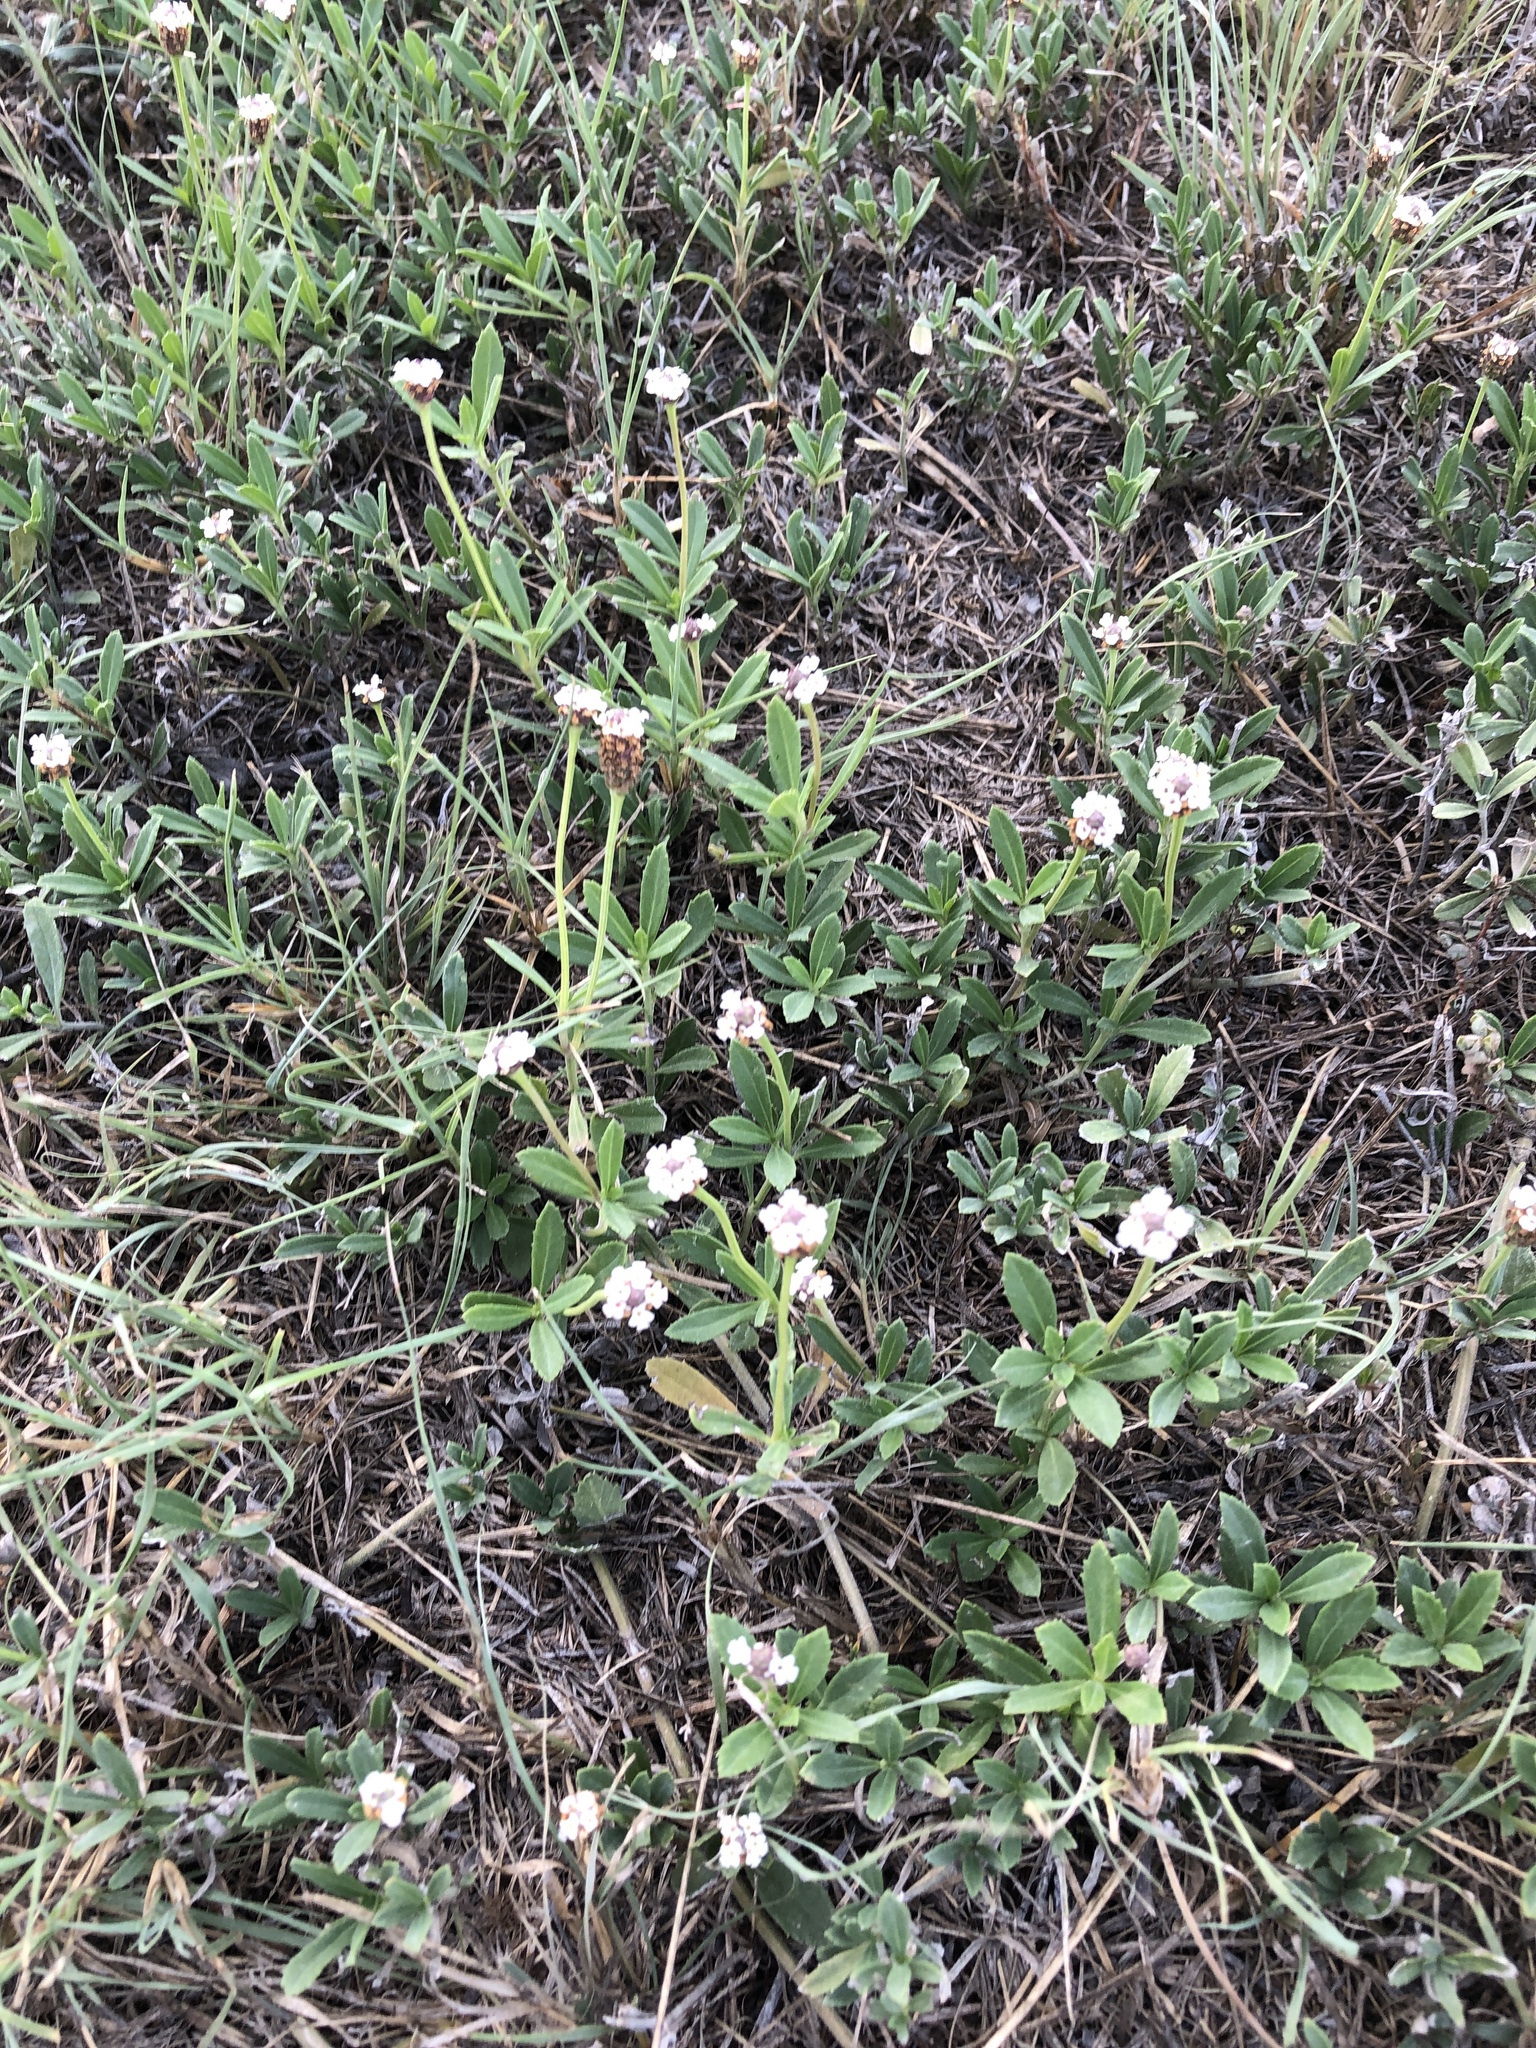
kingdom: Plantae
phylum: Tracheophyta
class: Magnoliopsida
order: Lamiales
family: Verbenaceae
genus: Phyla
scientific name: Phyla nodiflora
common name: Frogfruit
